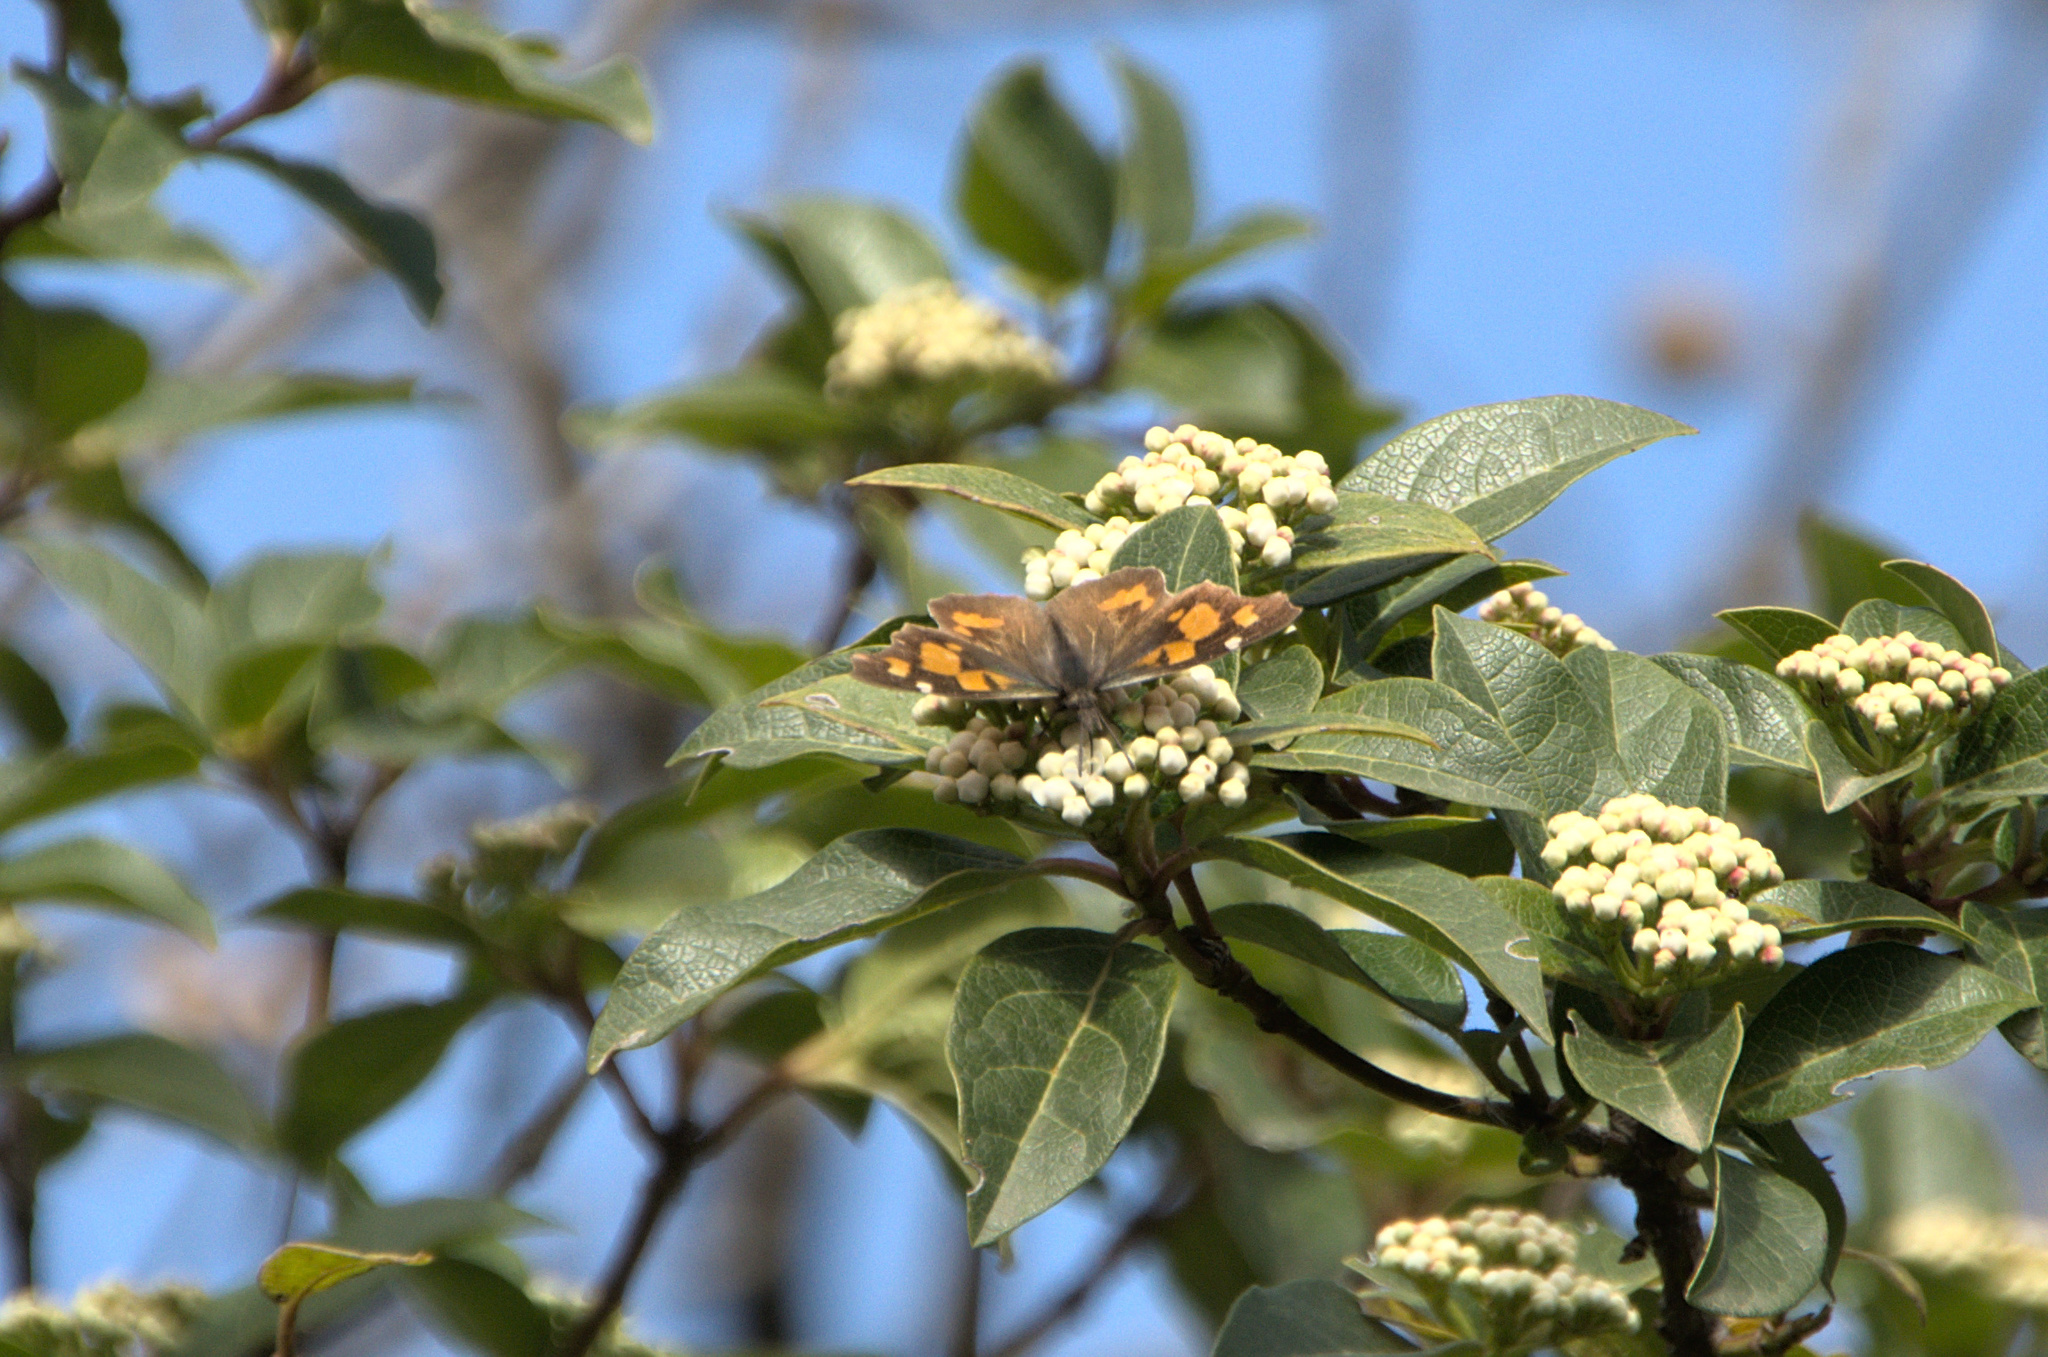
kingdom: Animalia
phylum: Arthropoda
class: Insecta
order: Lepidoptera
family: Nymphalidae
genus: Libythea
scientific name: Libythea celtis
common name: Nettle-tree butterfly
